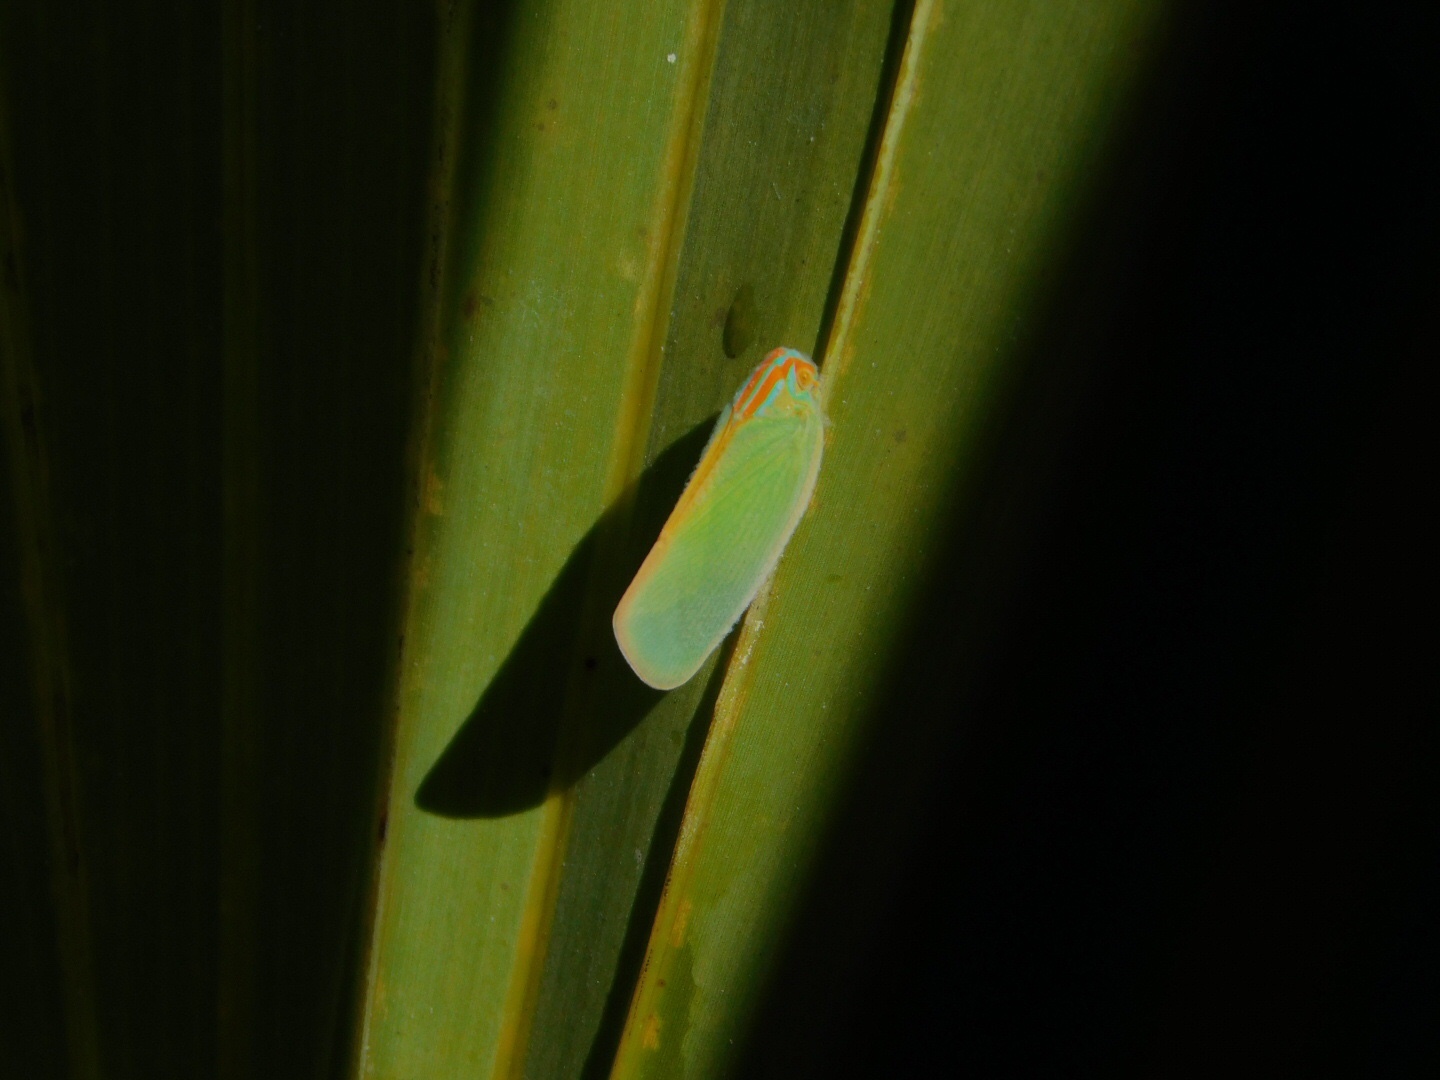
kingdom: Animalia
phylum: Arthropoda
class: Insecta
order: Hemiptera
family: Flatidae
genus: Ormenaria
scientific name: Ormenaria rufifascia
